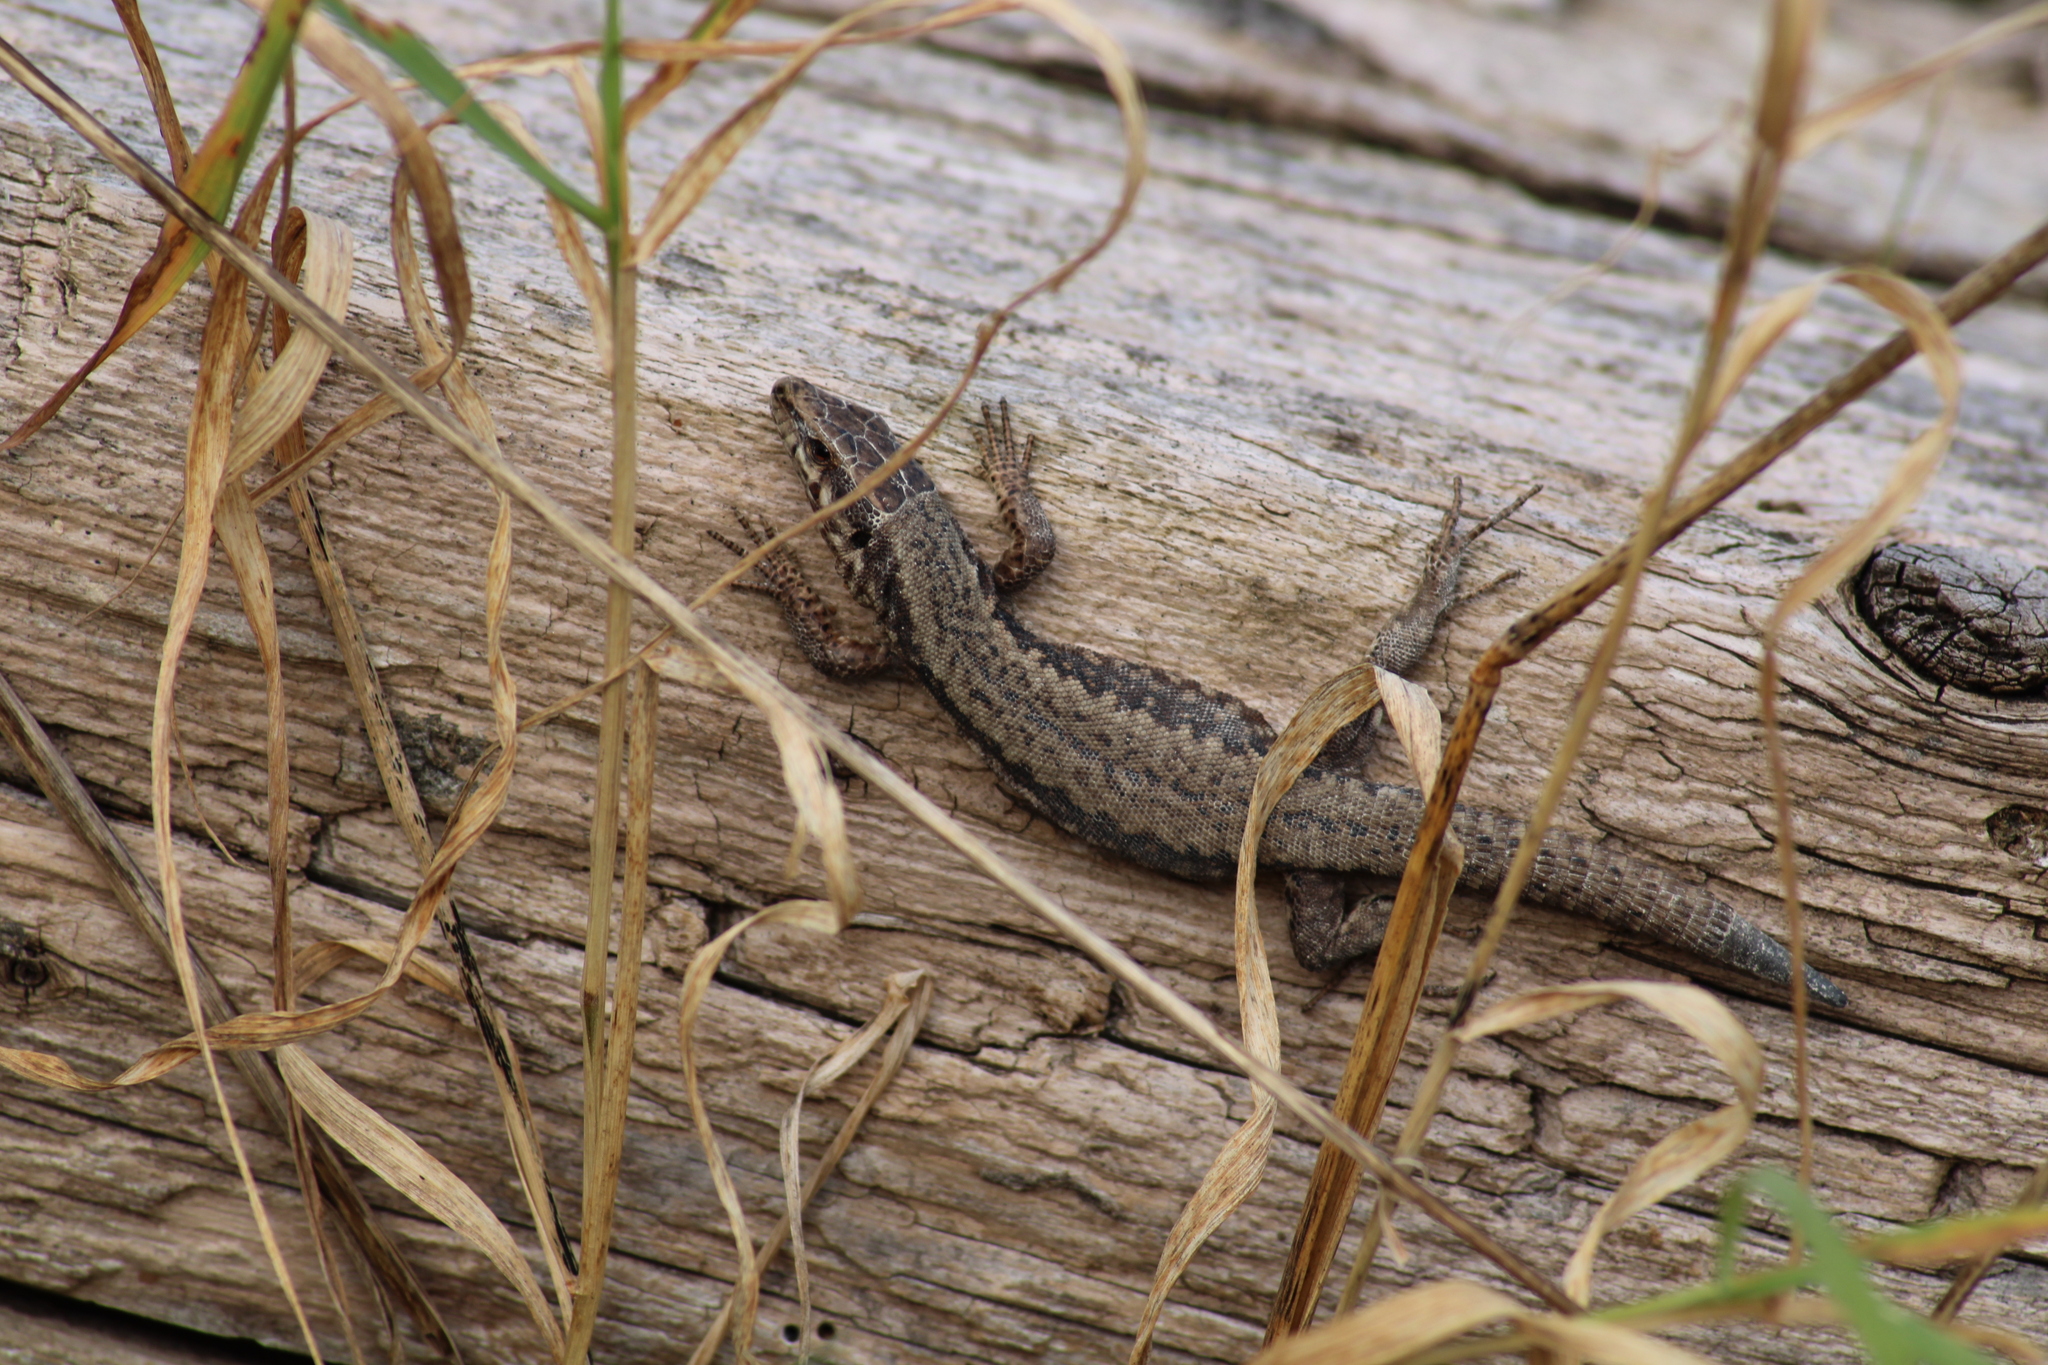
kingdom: Animalia
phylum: Chordata
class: Squamata
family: Lacertidae
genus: Podarcis
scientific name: Podarcis muralis
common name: Common wall lizard
